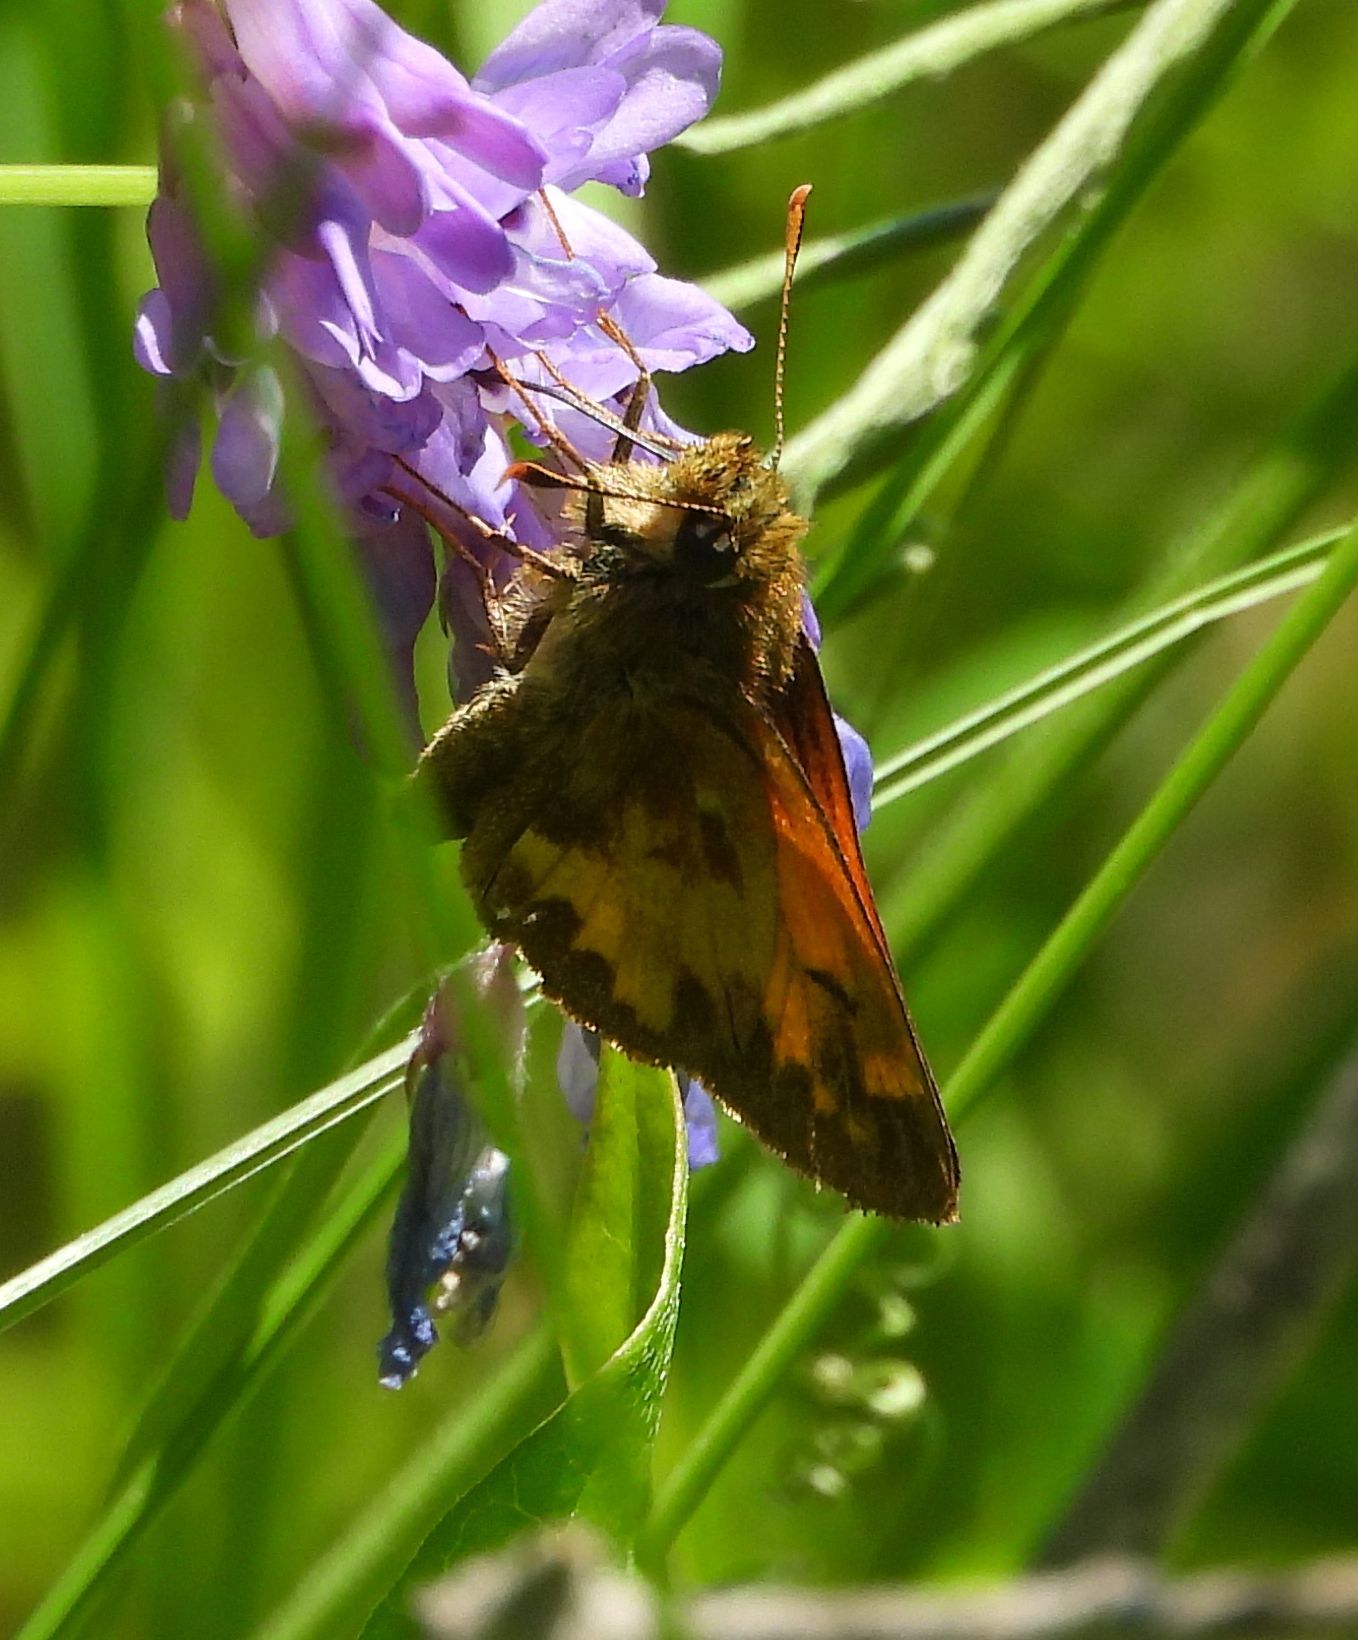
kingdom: Animalia
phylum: Arthropoda
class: Insecta
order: Lepidoptera
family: Hesperiidae
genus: Lon
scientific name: Lon hobomok
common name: Hobomok skipper
